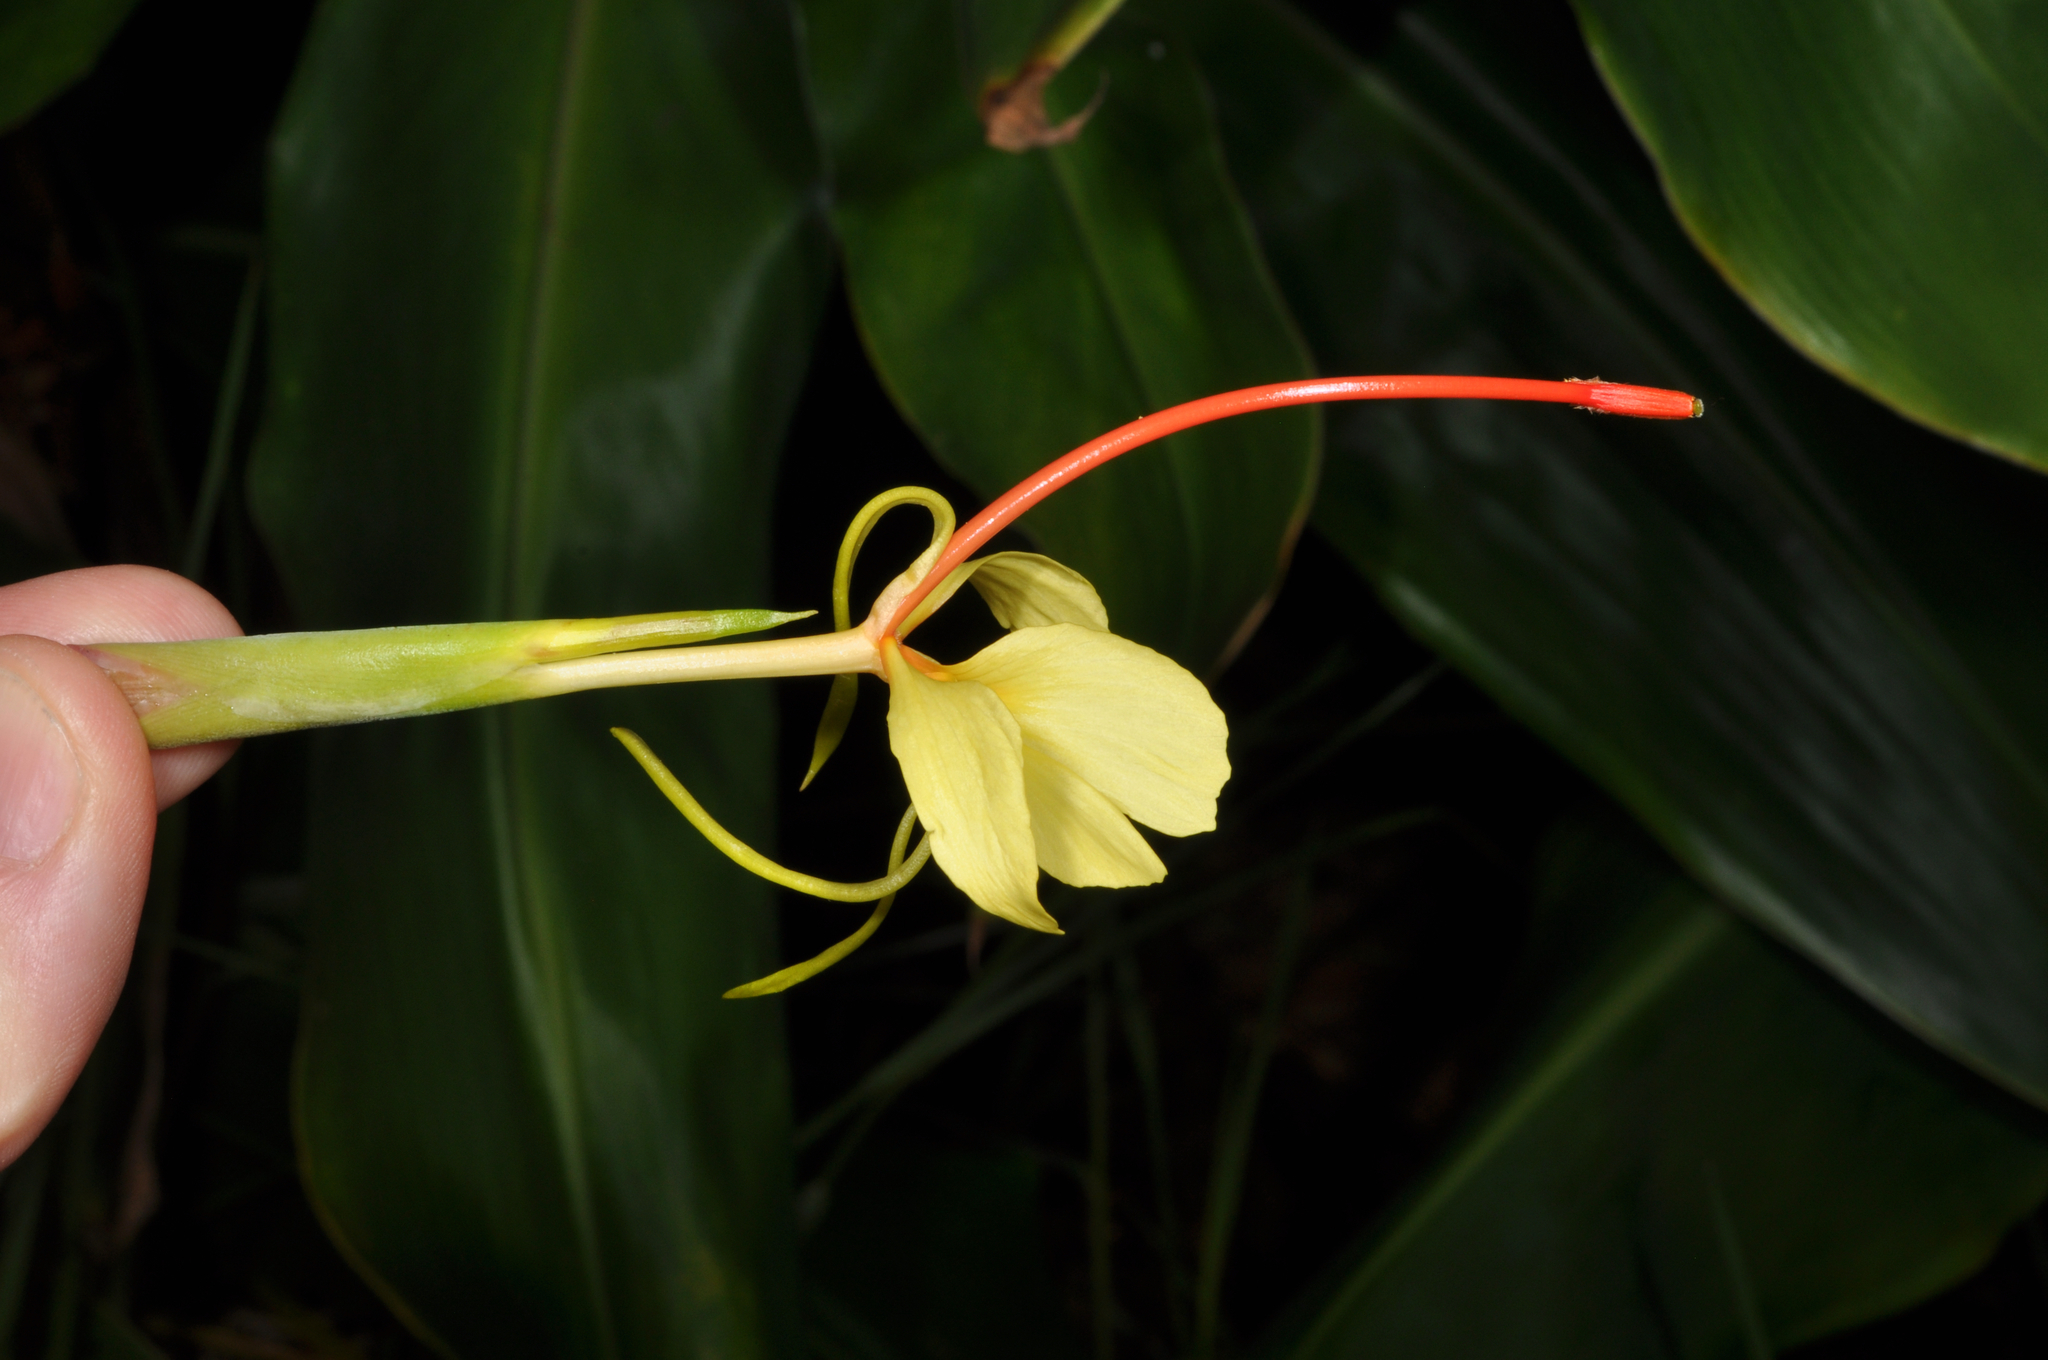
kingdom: Plantae
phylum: Tracheophyta
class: Liliopsida
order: Zingiberales
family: Zingiberaceae
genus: Hedychium
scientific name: Hedychium gardnerianum
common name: Himalayan ginger
